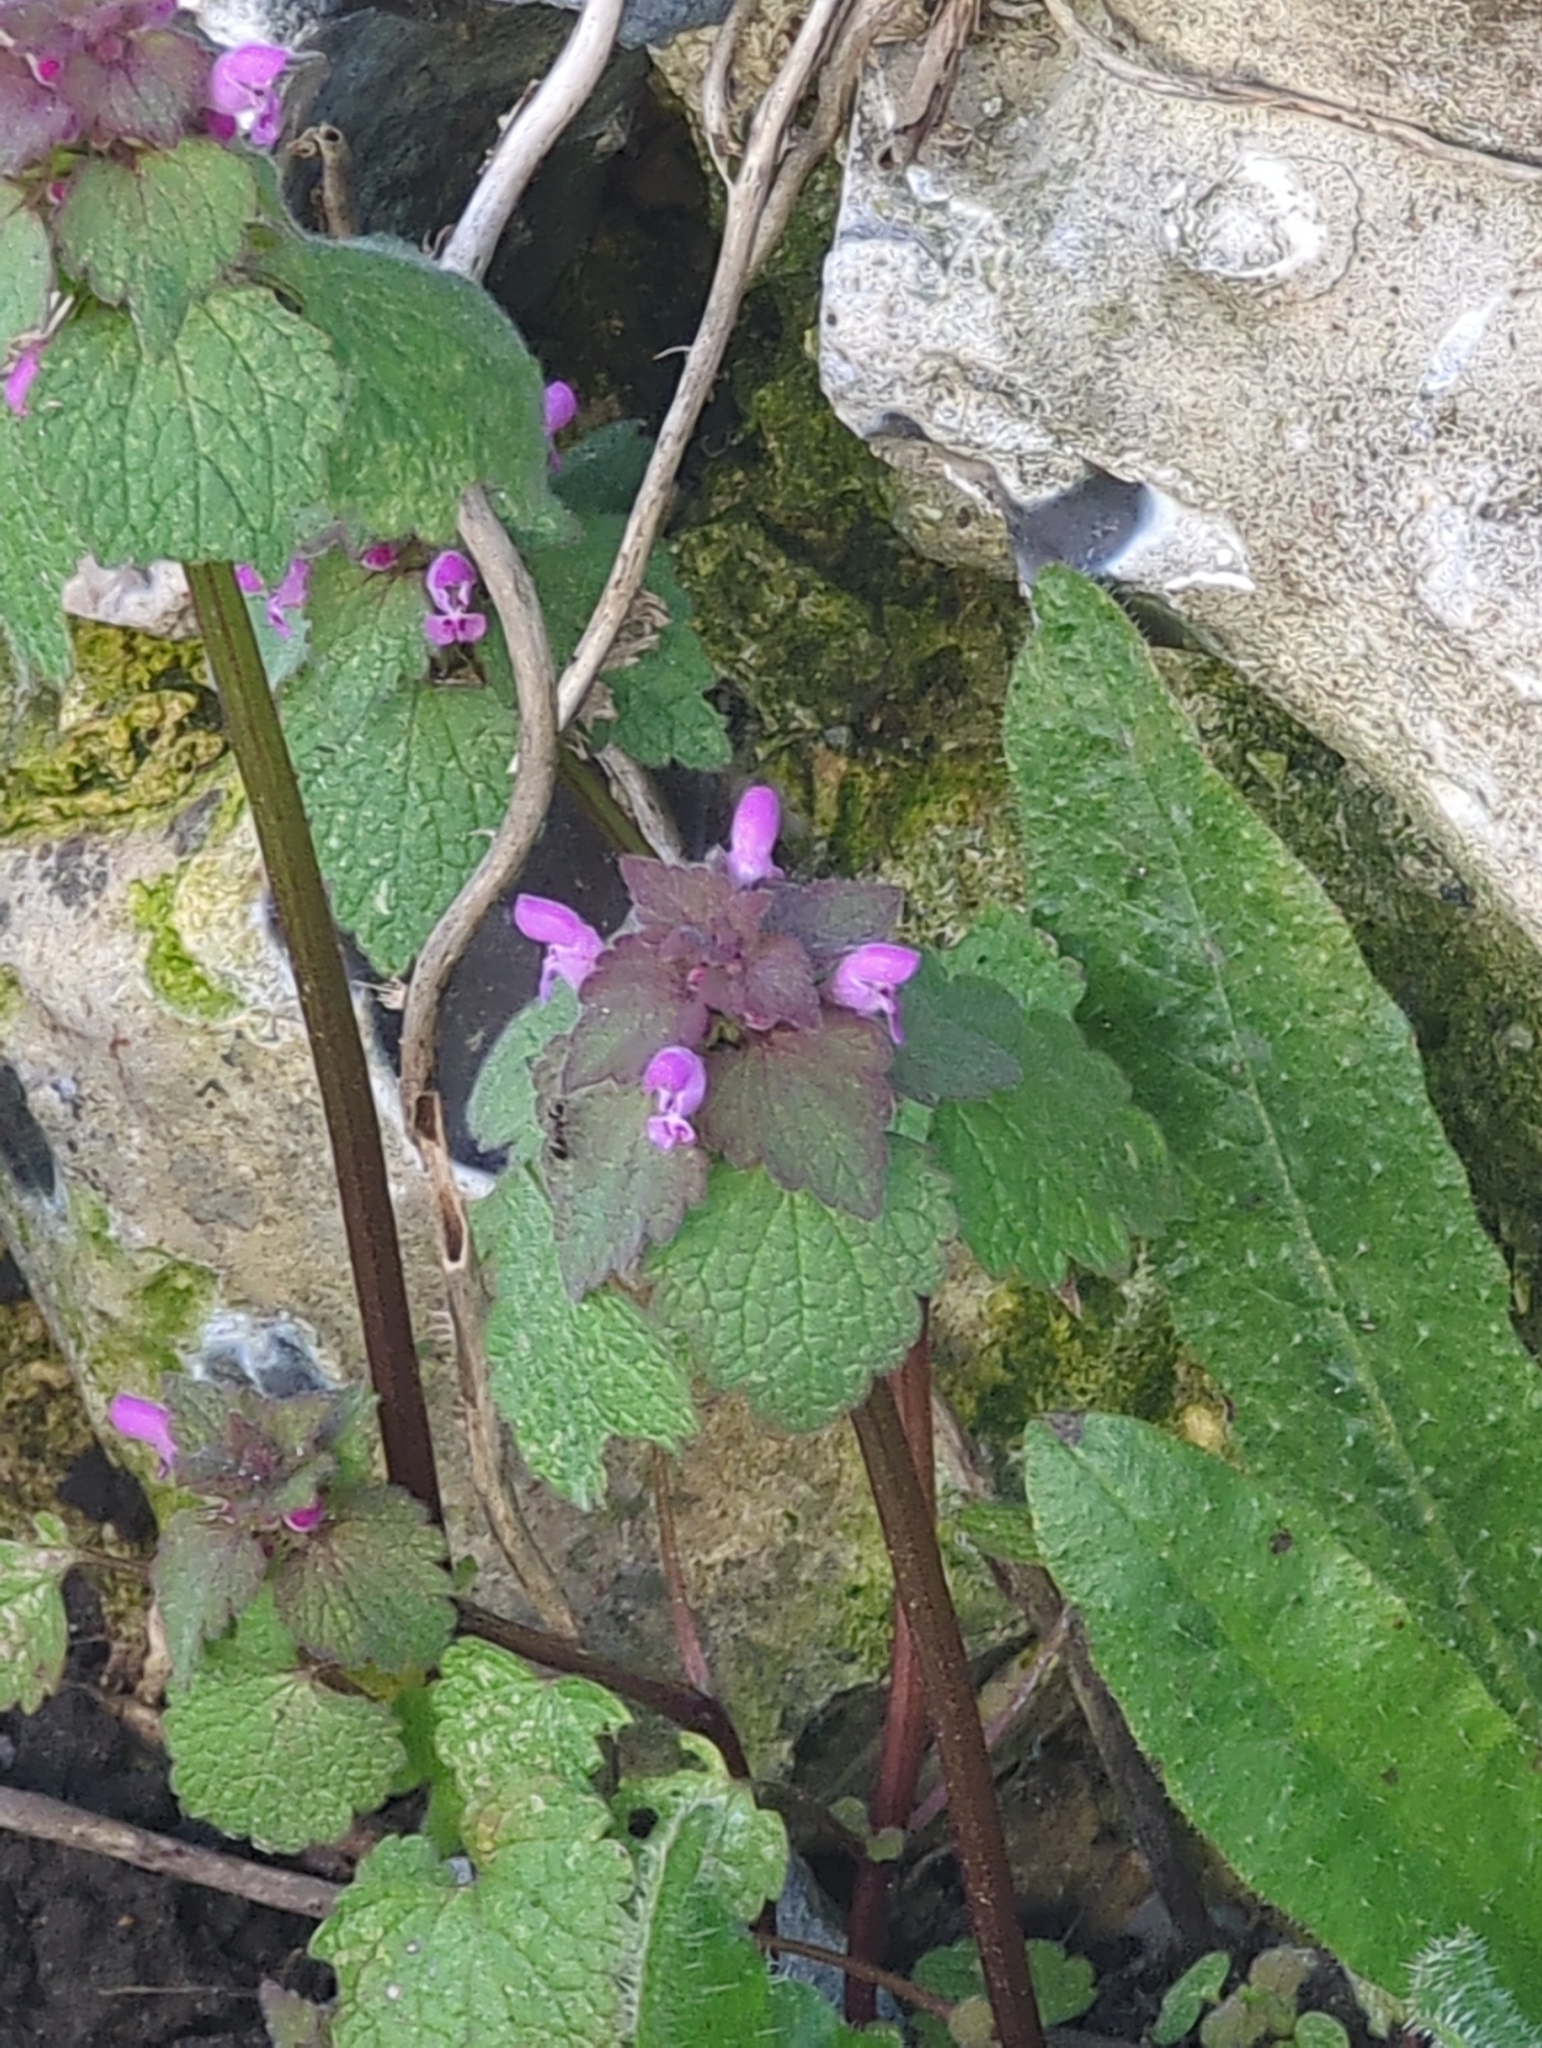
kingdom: Plantae
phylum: Tracheophyta
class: Magnoliopsida
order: Lamiales
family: Lamiaceae
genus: Lamium
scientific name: Lamium purpureum
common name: Red dead-nettle
